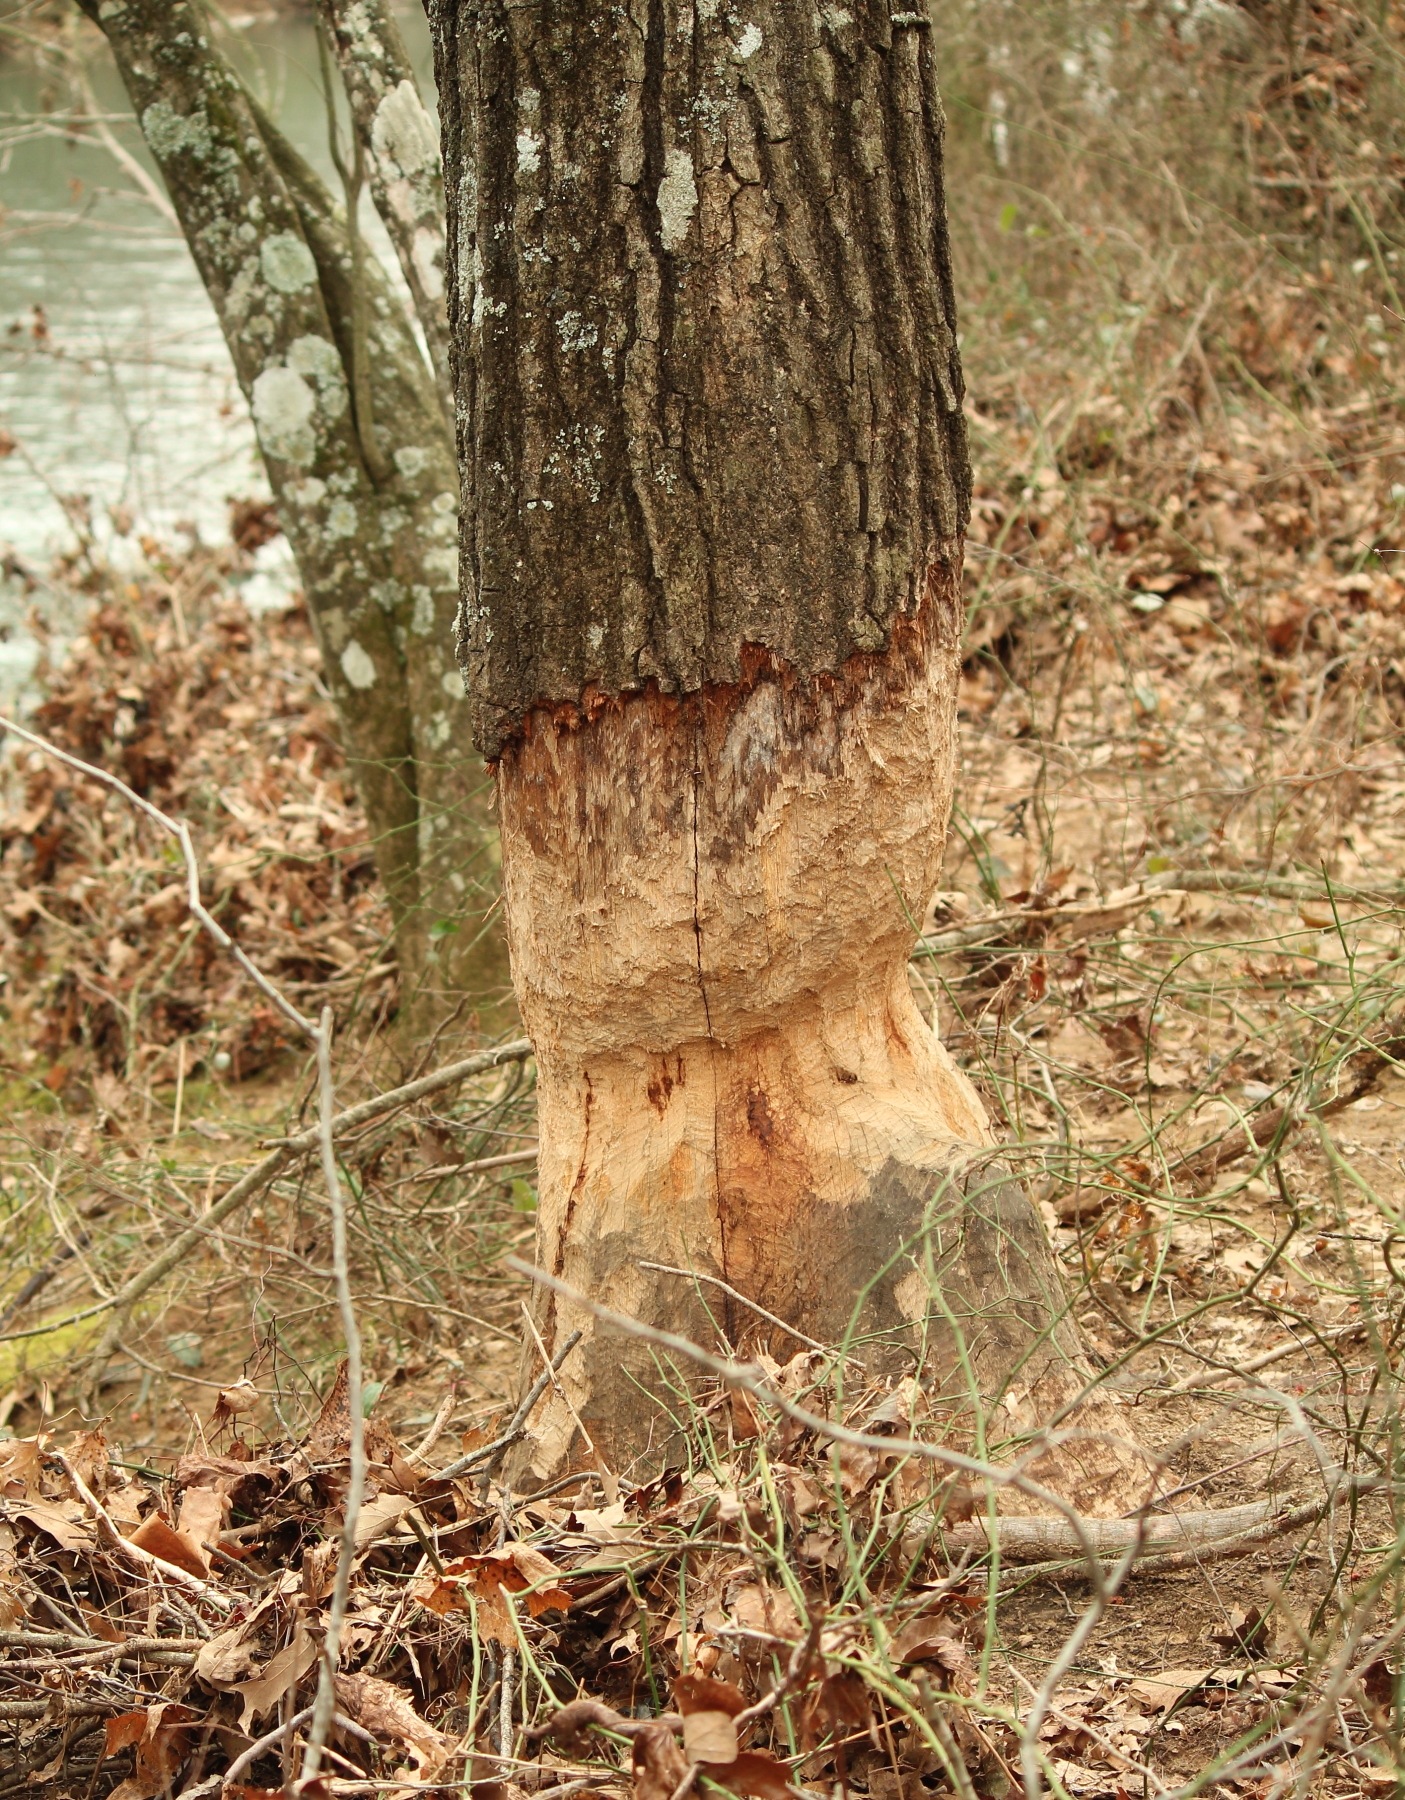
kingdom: Animalia
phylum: Chordata
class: Mammalia
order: Rodentia
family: Castoridae
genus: Castor
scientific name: Castor canadensis
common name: American beaver
